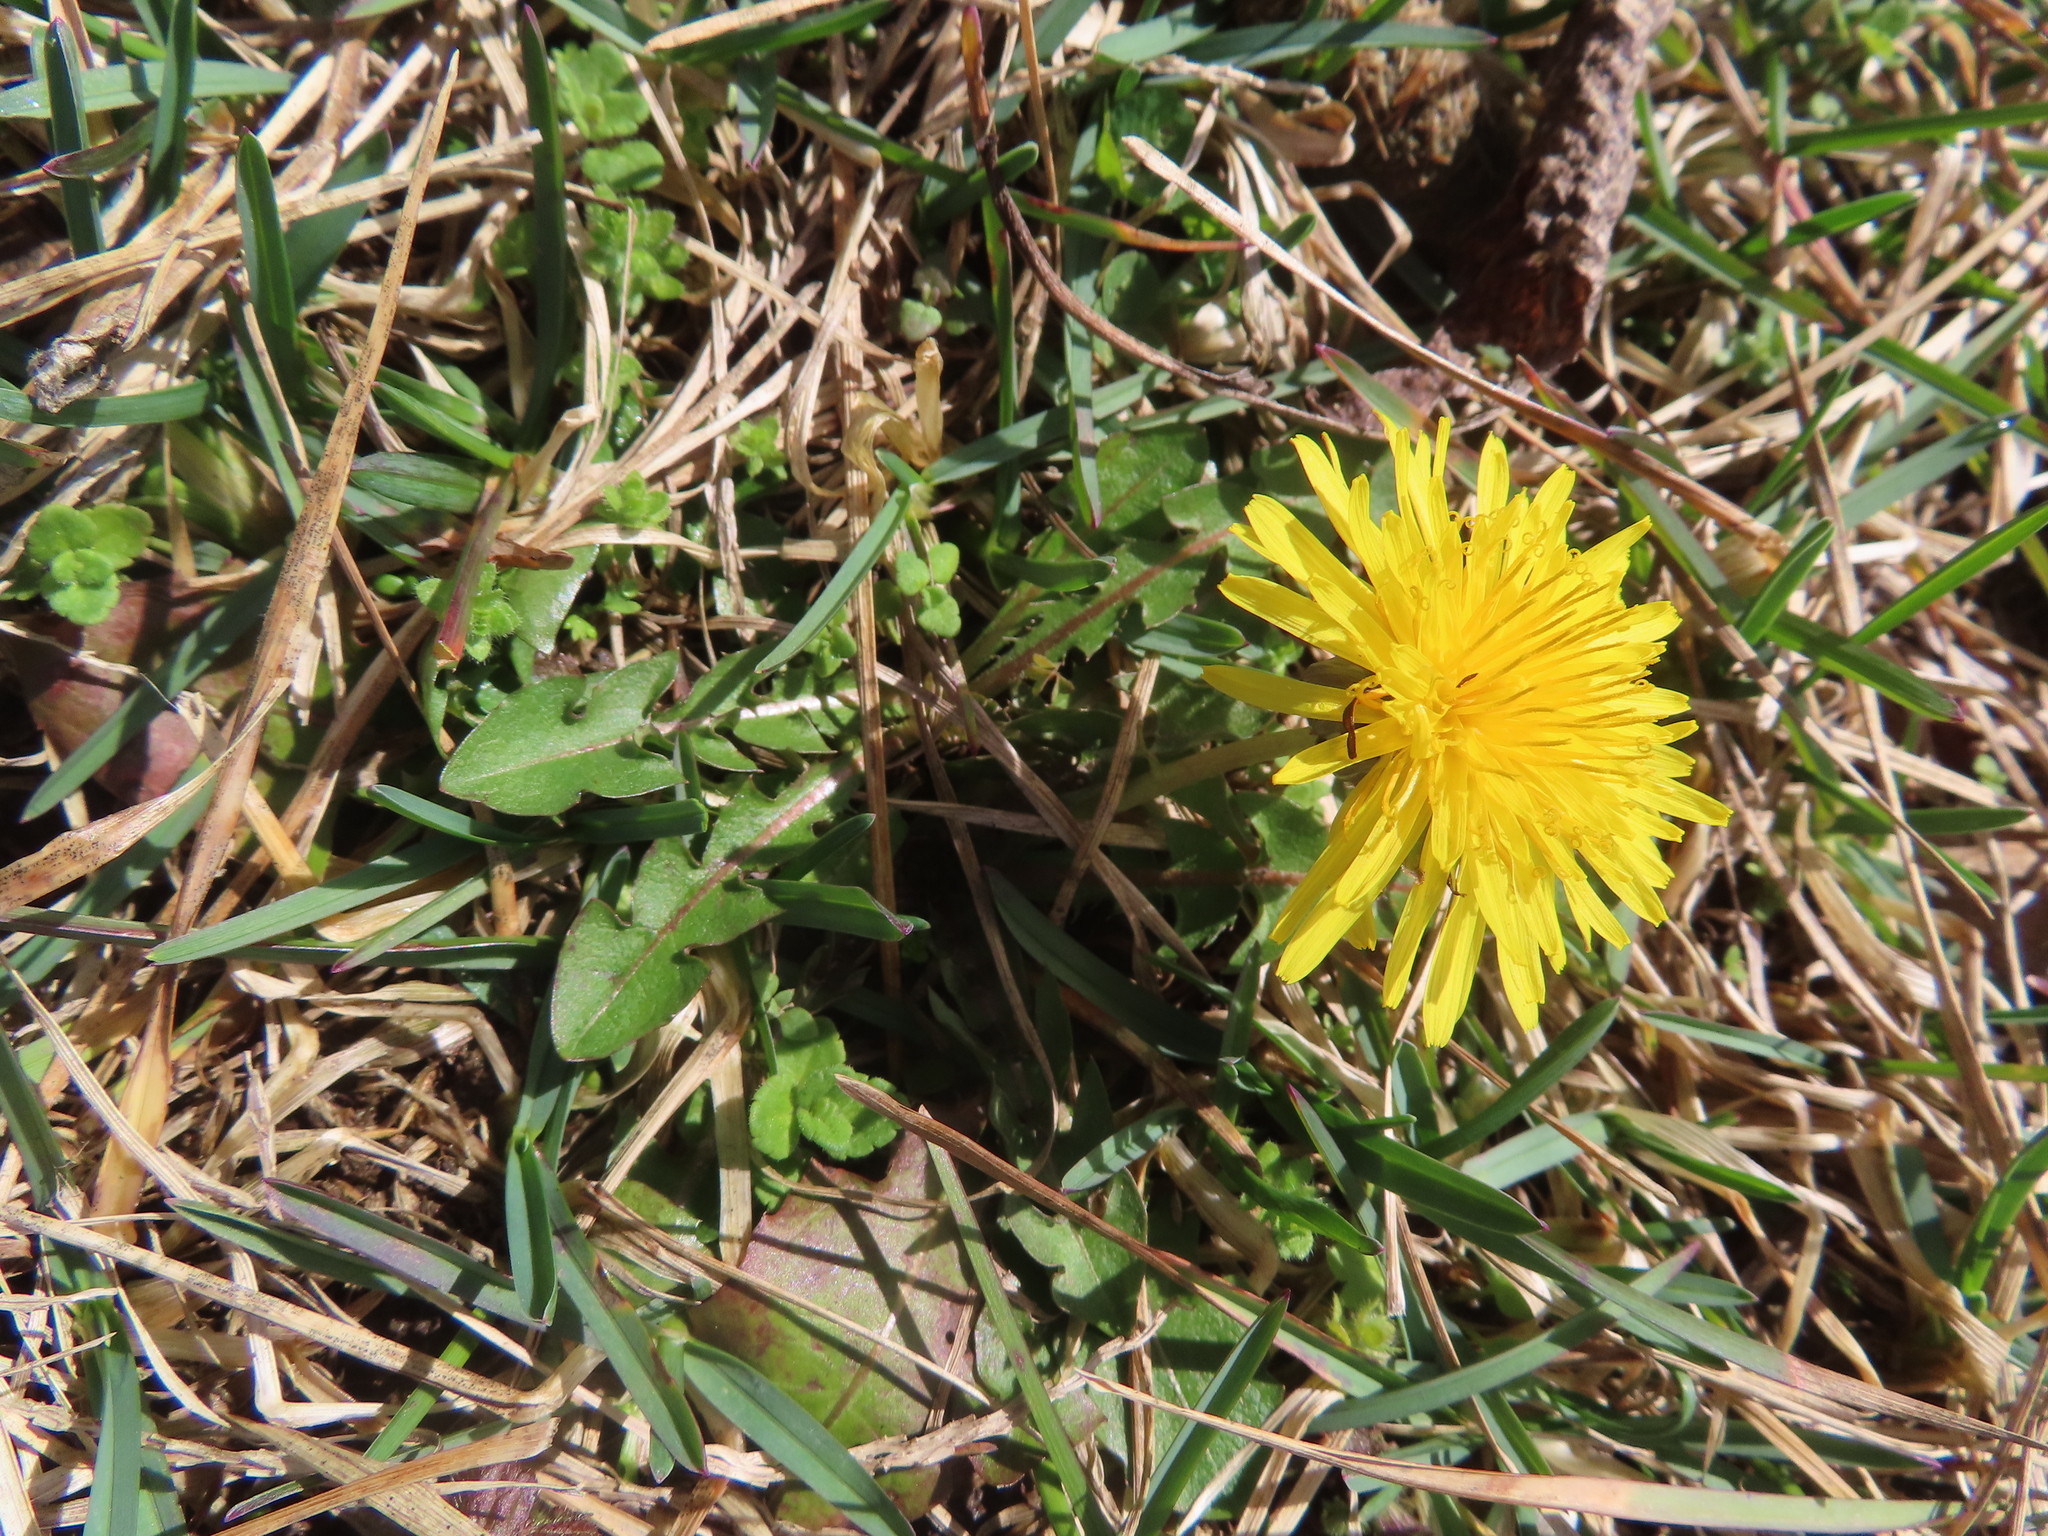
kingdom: Plantae
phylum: Tracheophyta
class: Magnoliopsida
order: Asterales
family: Asteraceae
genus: Taraxacum
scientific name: Taraxacum officinale
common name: Common dandelion
